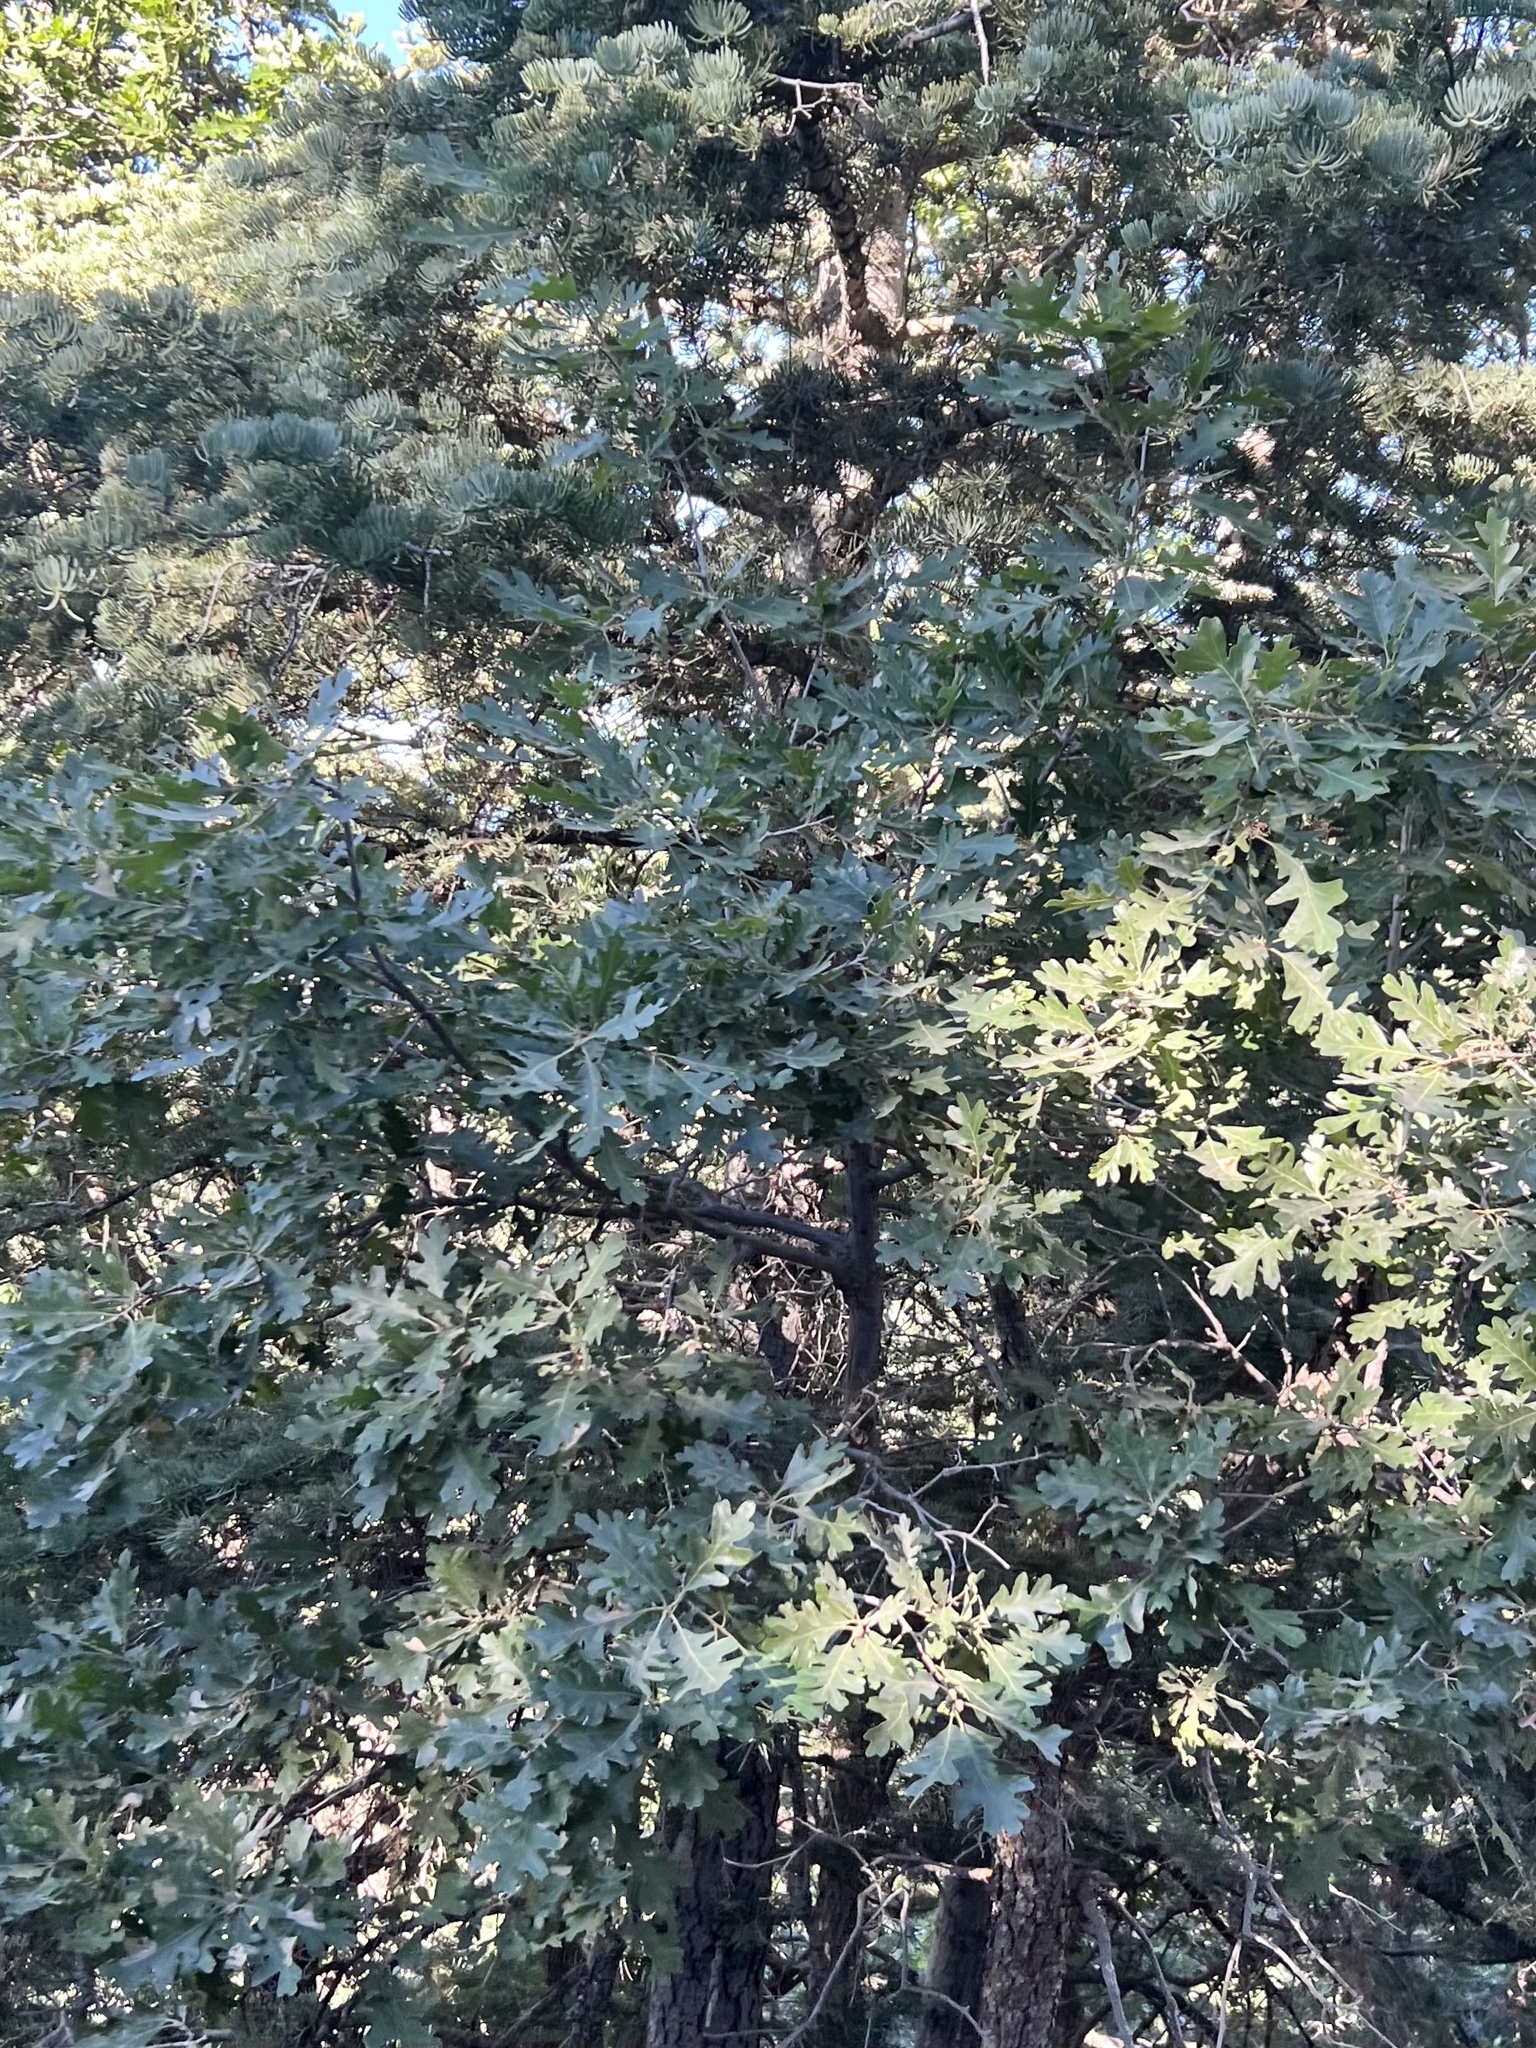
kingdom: Plantae
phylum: Tracheophyta
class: Magnoliopsida
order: Fagales
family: Fagaceae
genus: Quercus
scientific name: Quercus gambelii
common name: Gambel oak
